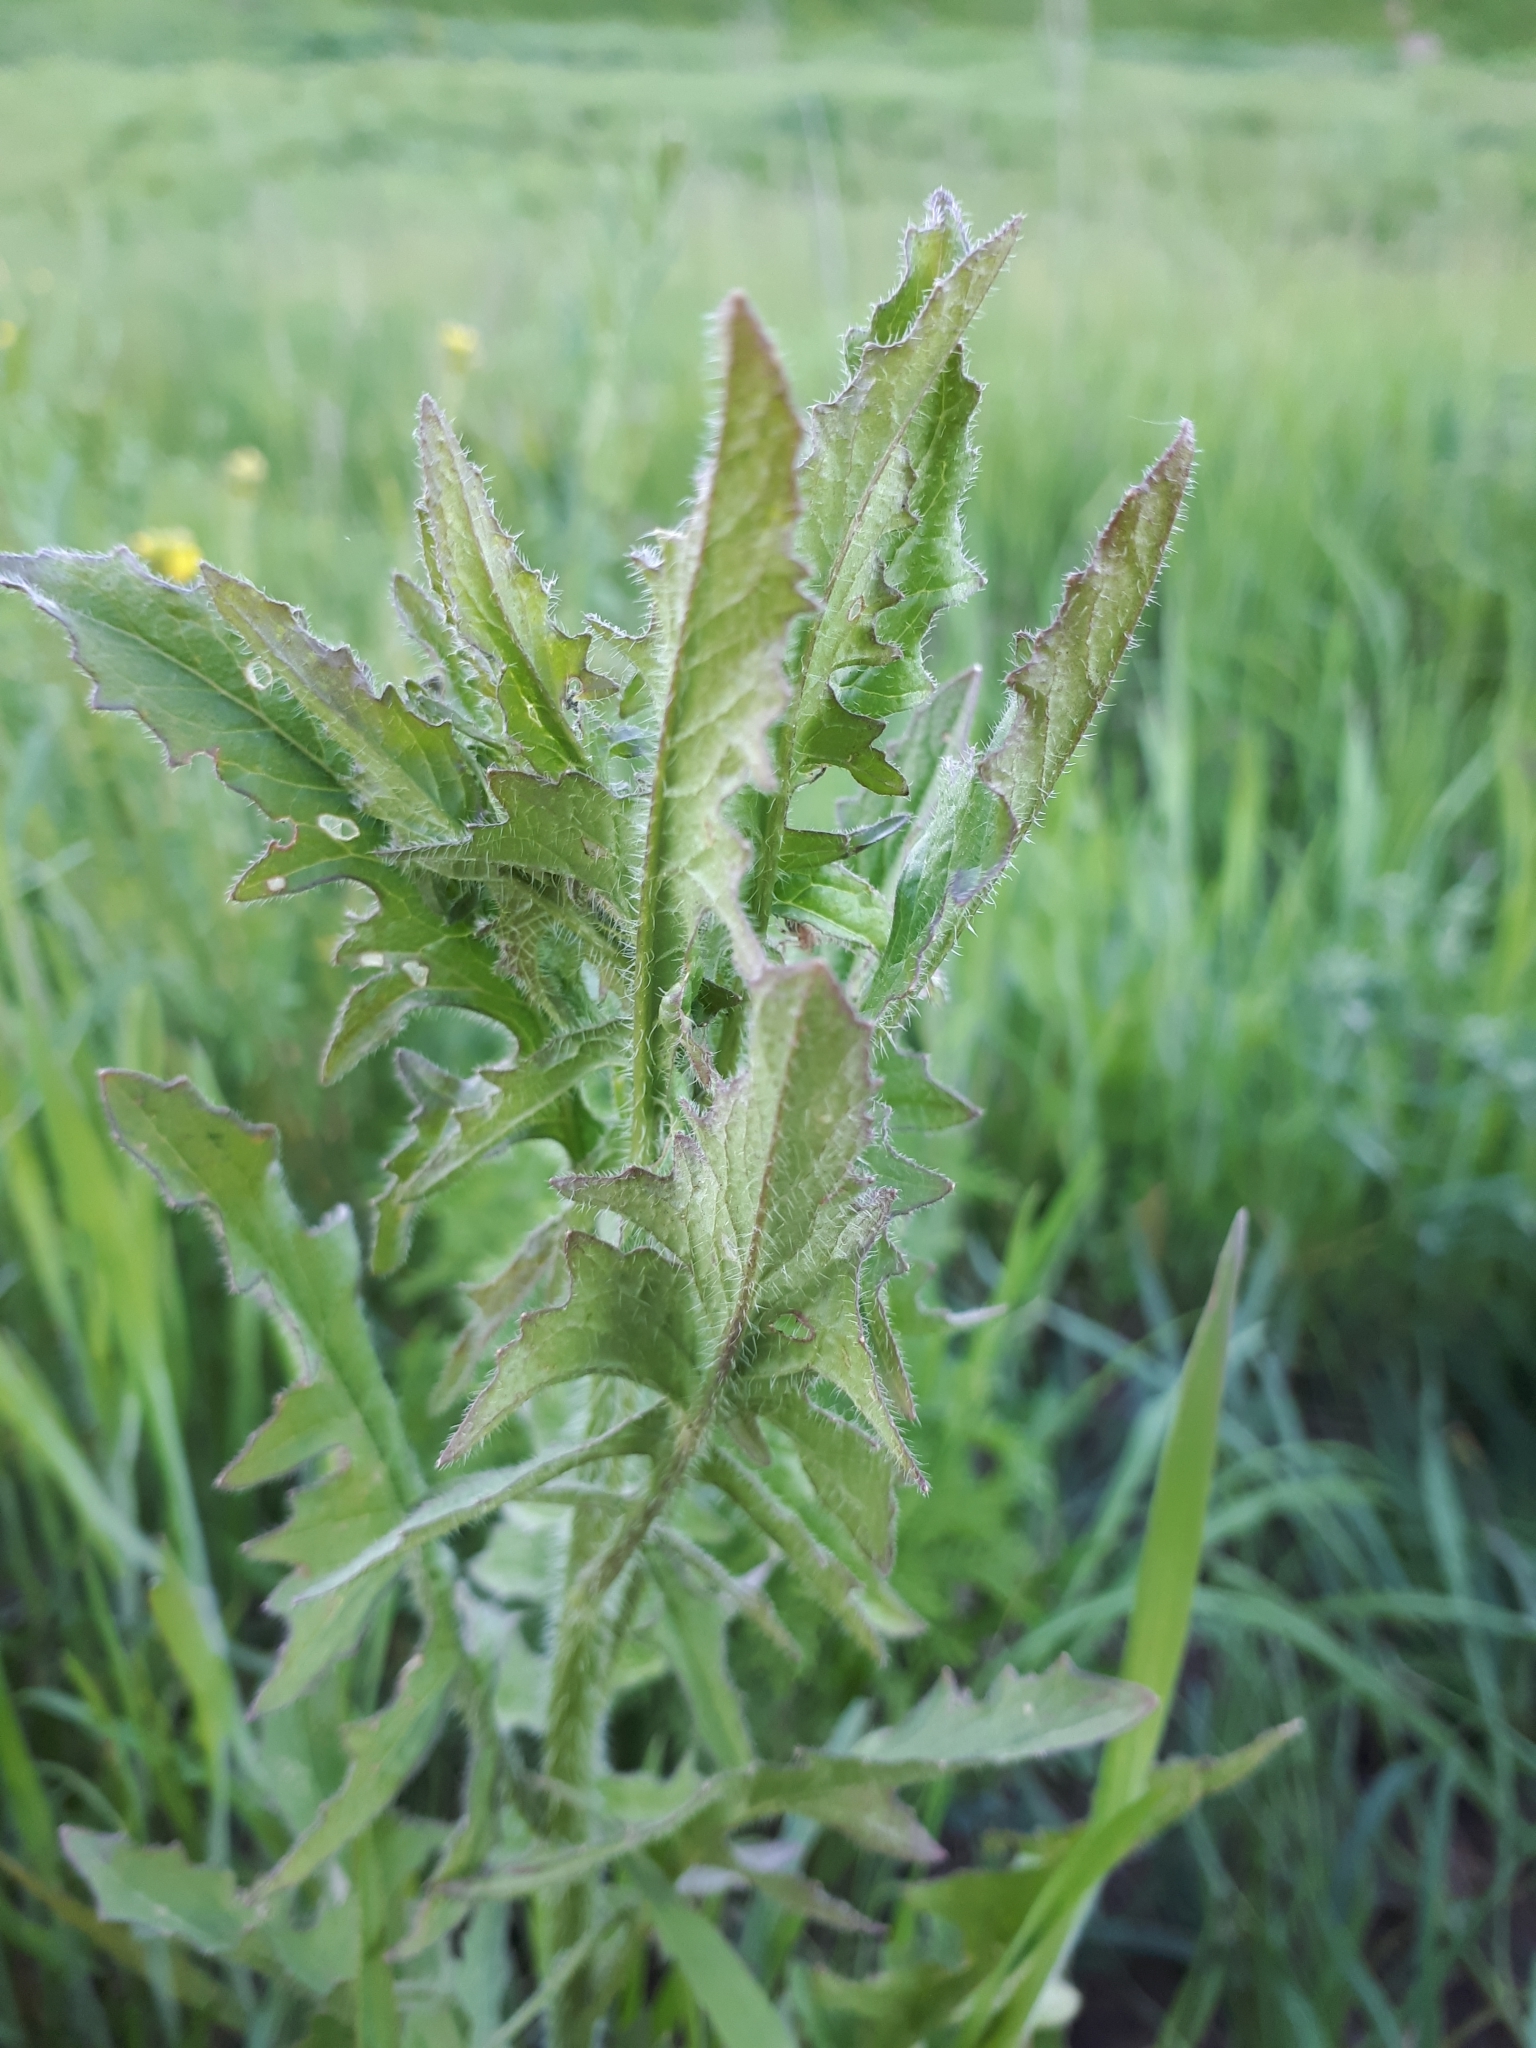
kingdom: Plantae
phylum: Tracheophyta
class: Magnoliopsida
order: Brassicales
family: Brassicaceae
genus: Sisymbrium
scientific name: Sisymbrium loeselii
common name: False london-rocket
